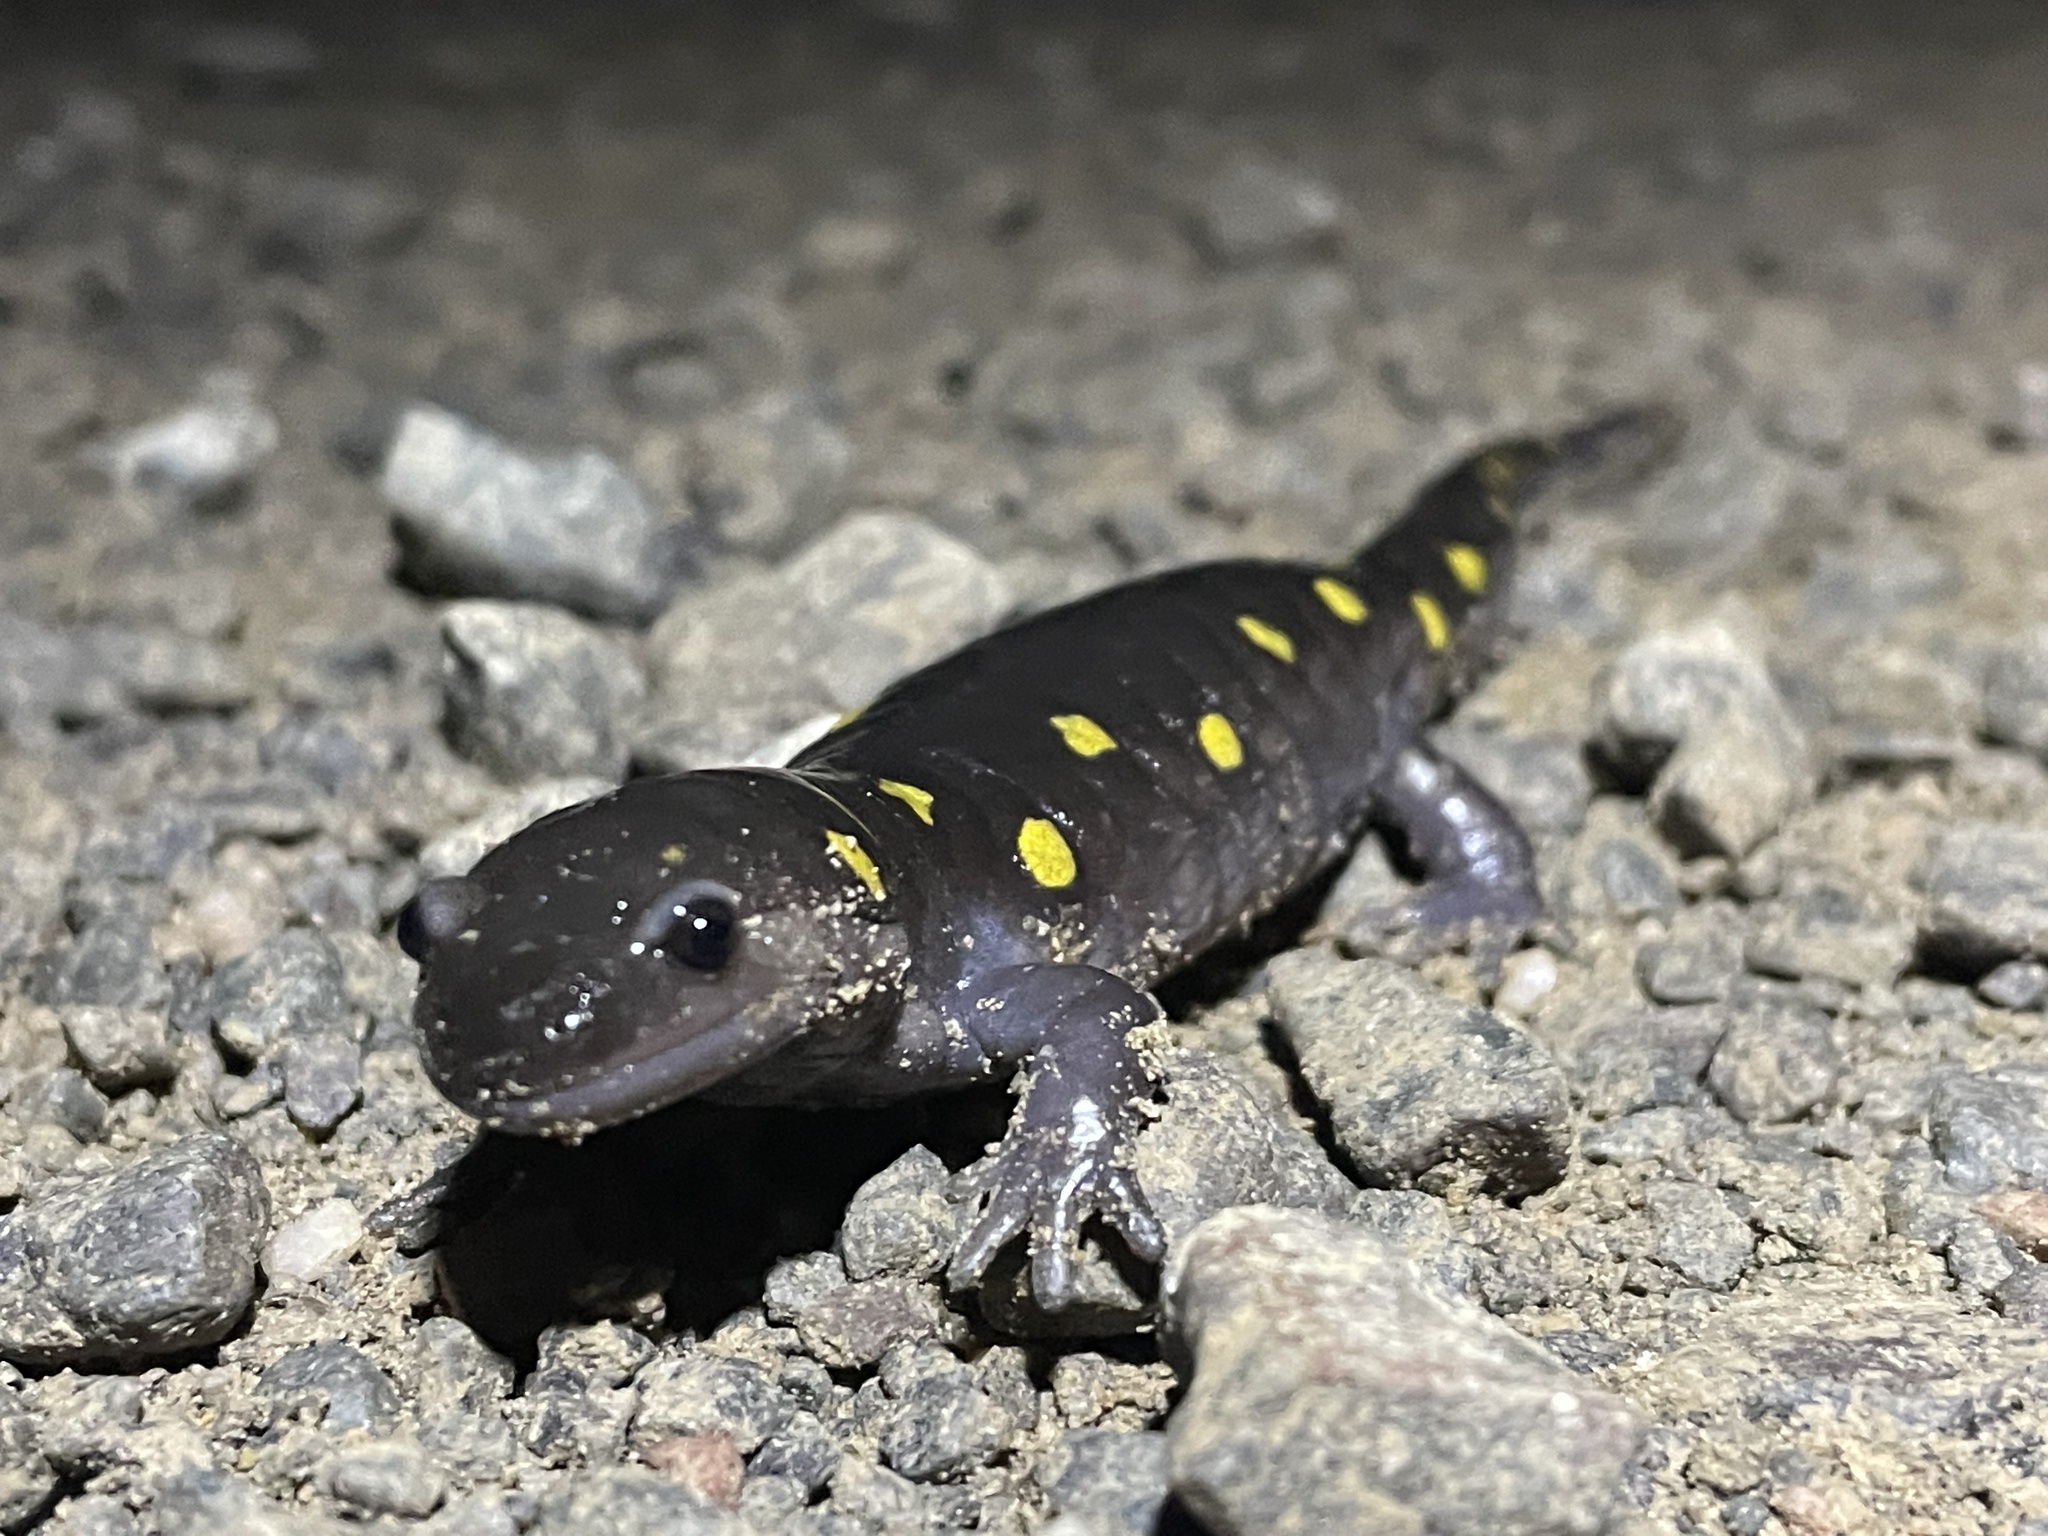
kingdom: Animalia
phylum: Chordata
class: Amphibia
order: Caudata
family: Ambystomatidae
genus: Ambystoma
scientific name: Ambystoma maculatum
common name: Spotted salamander
